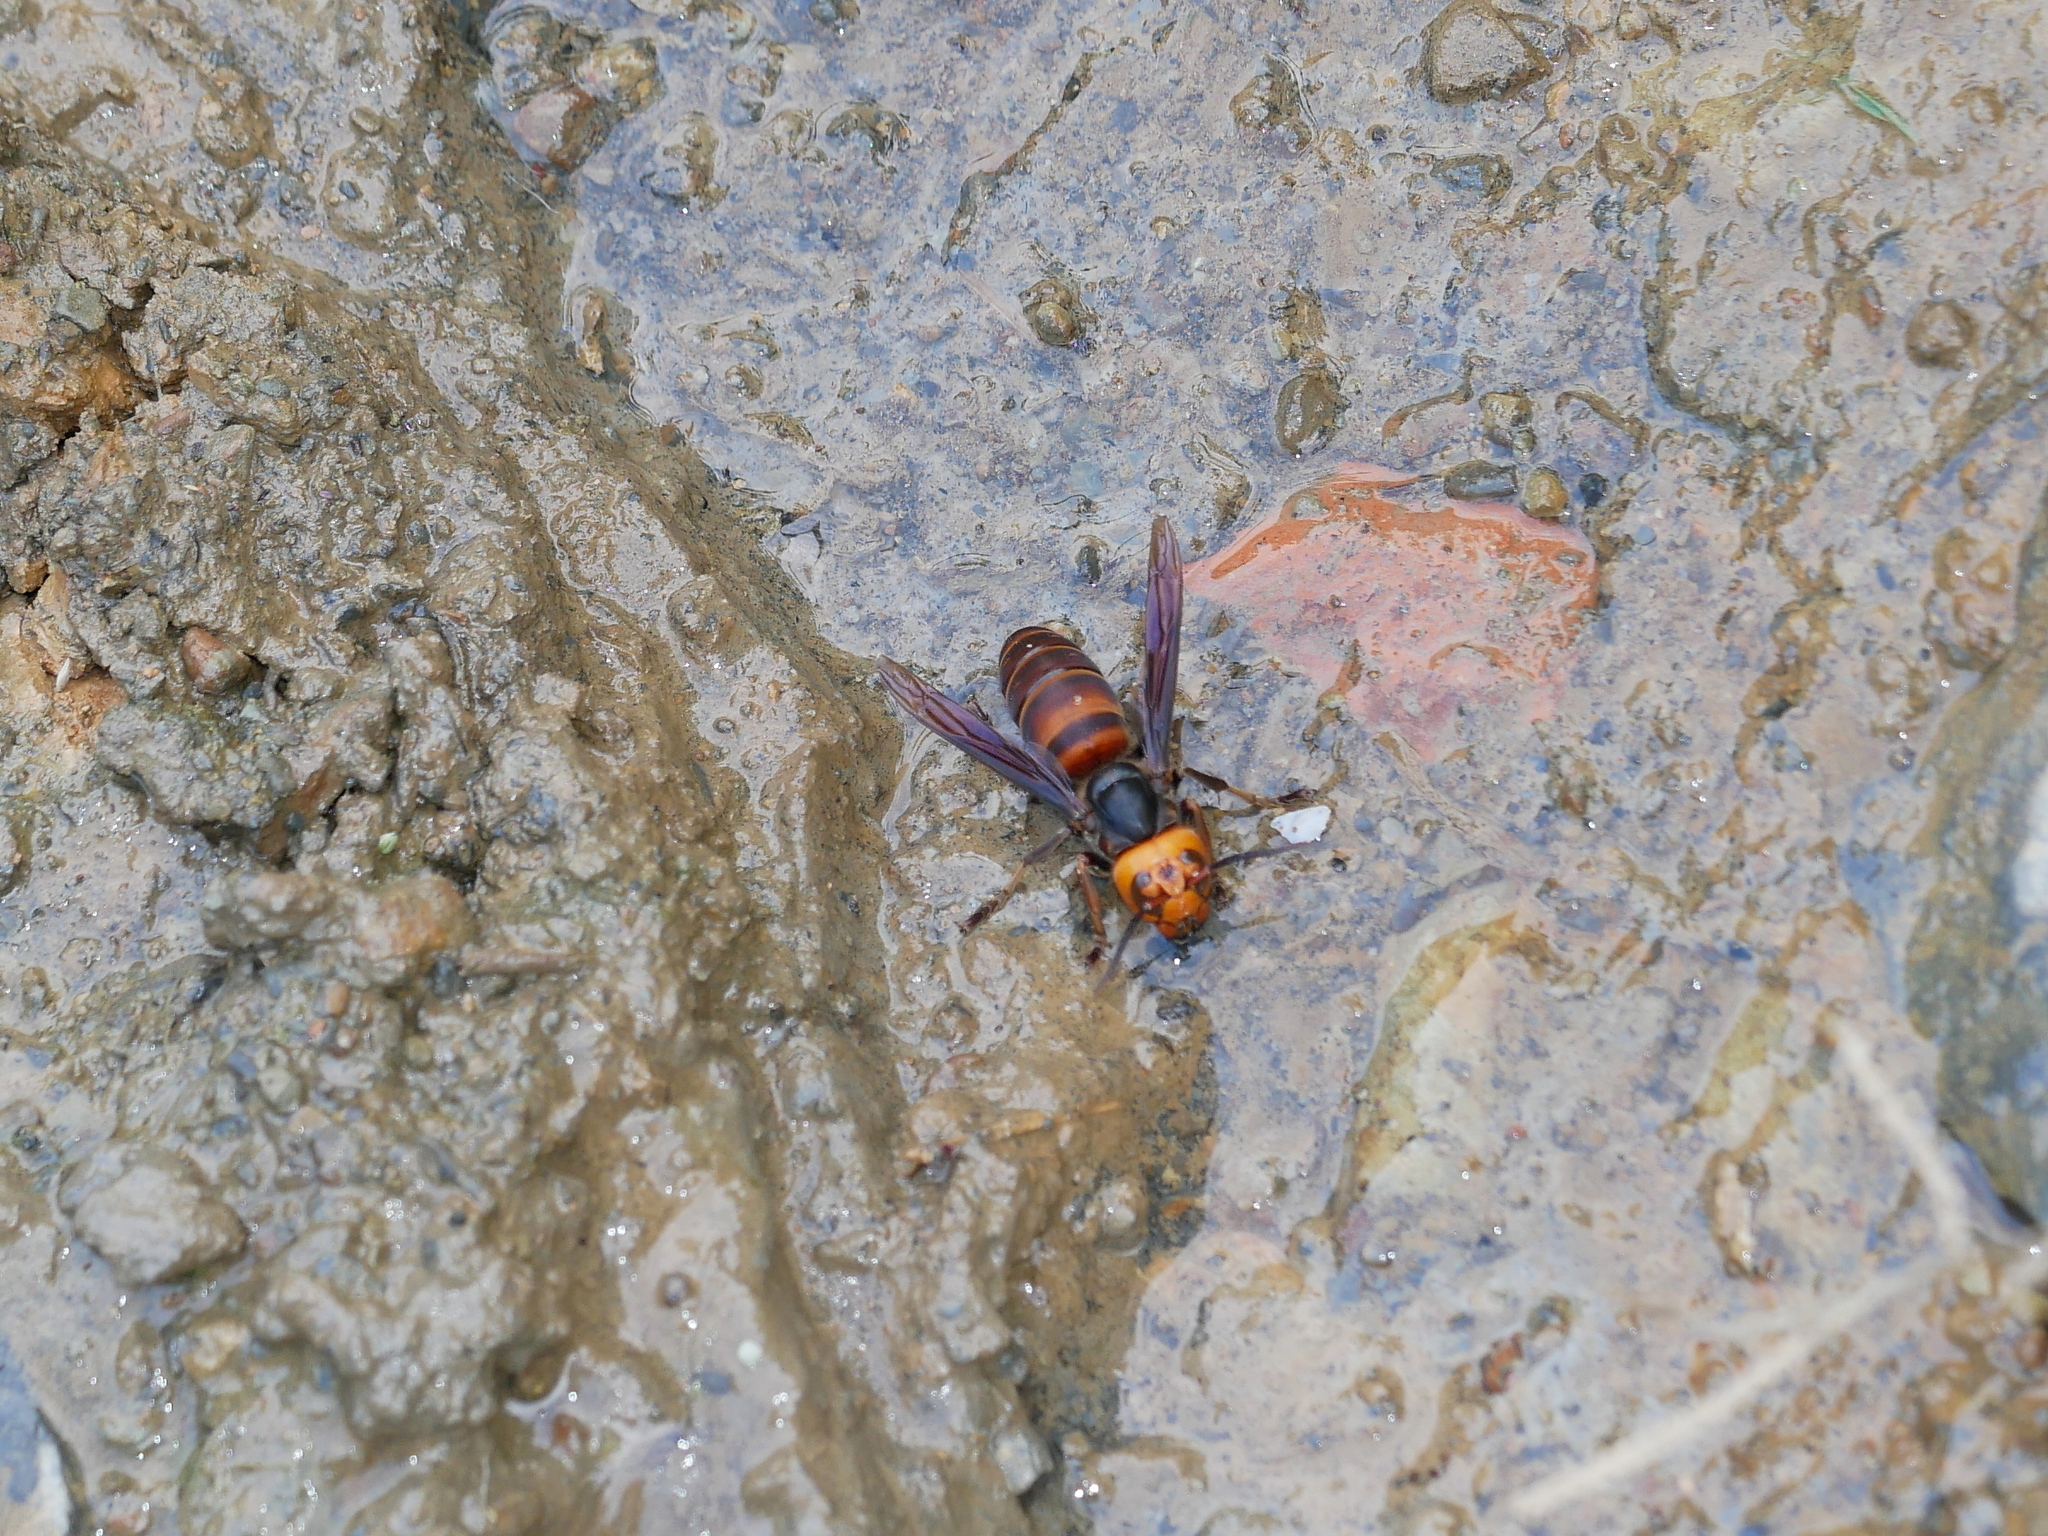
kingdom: Animalia
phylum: Arthropoda
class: Insecta
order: Hymenoptera
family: Vespidae
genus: Vespa
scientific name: Vespa mandarinia
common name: Asian giant hornet
